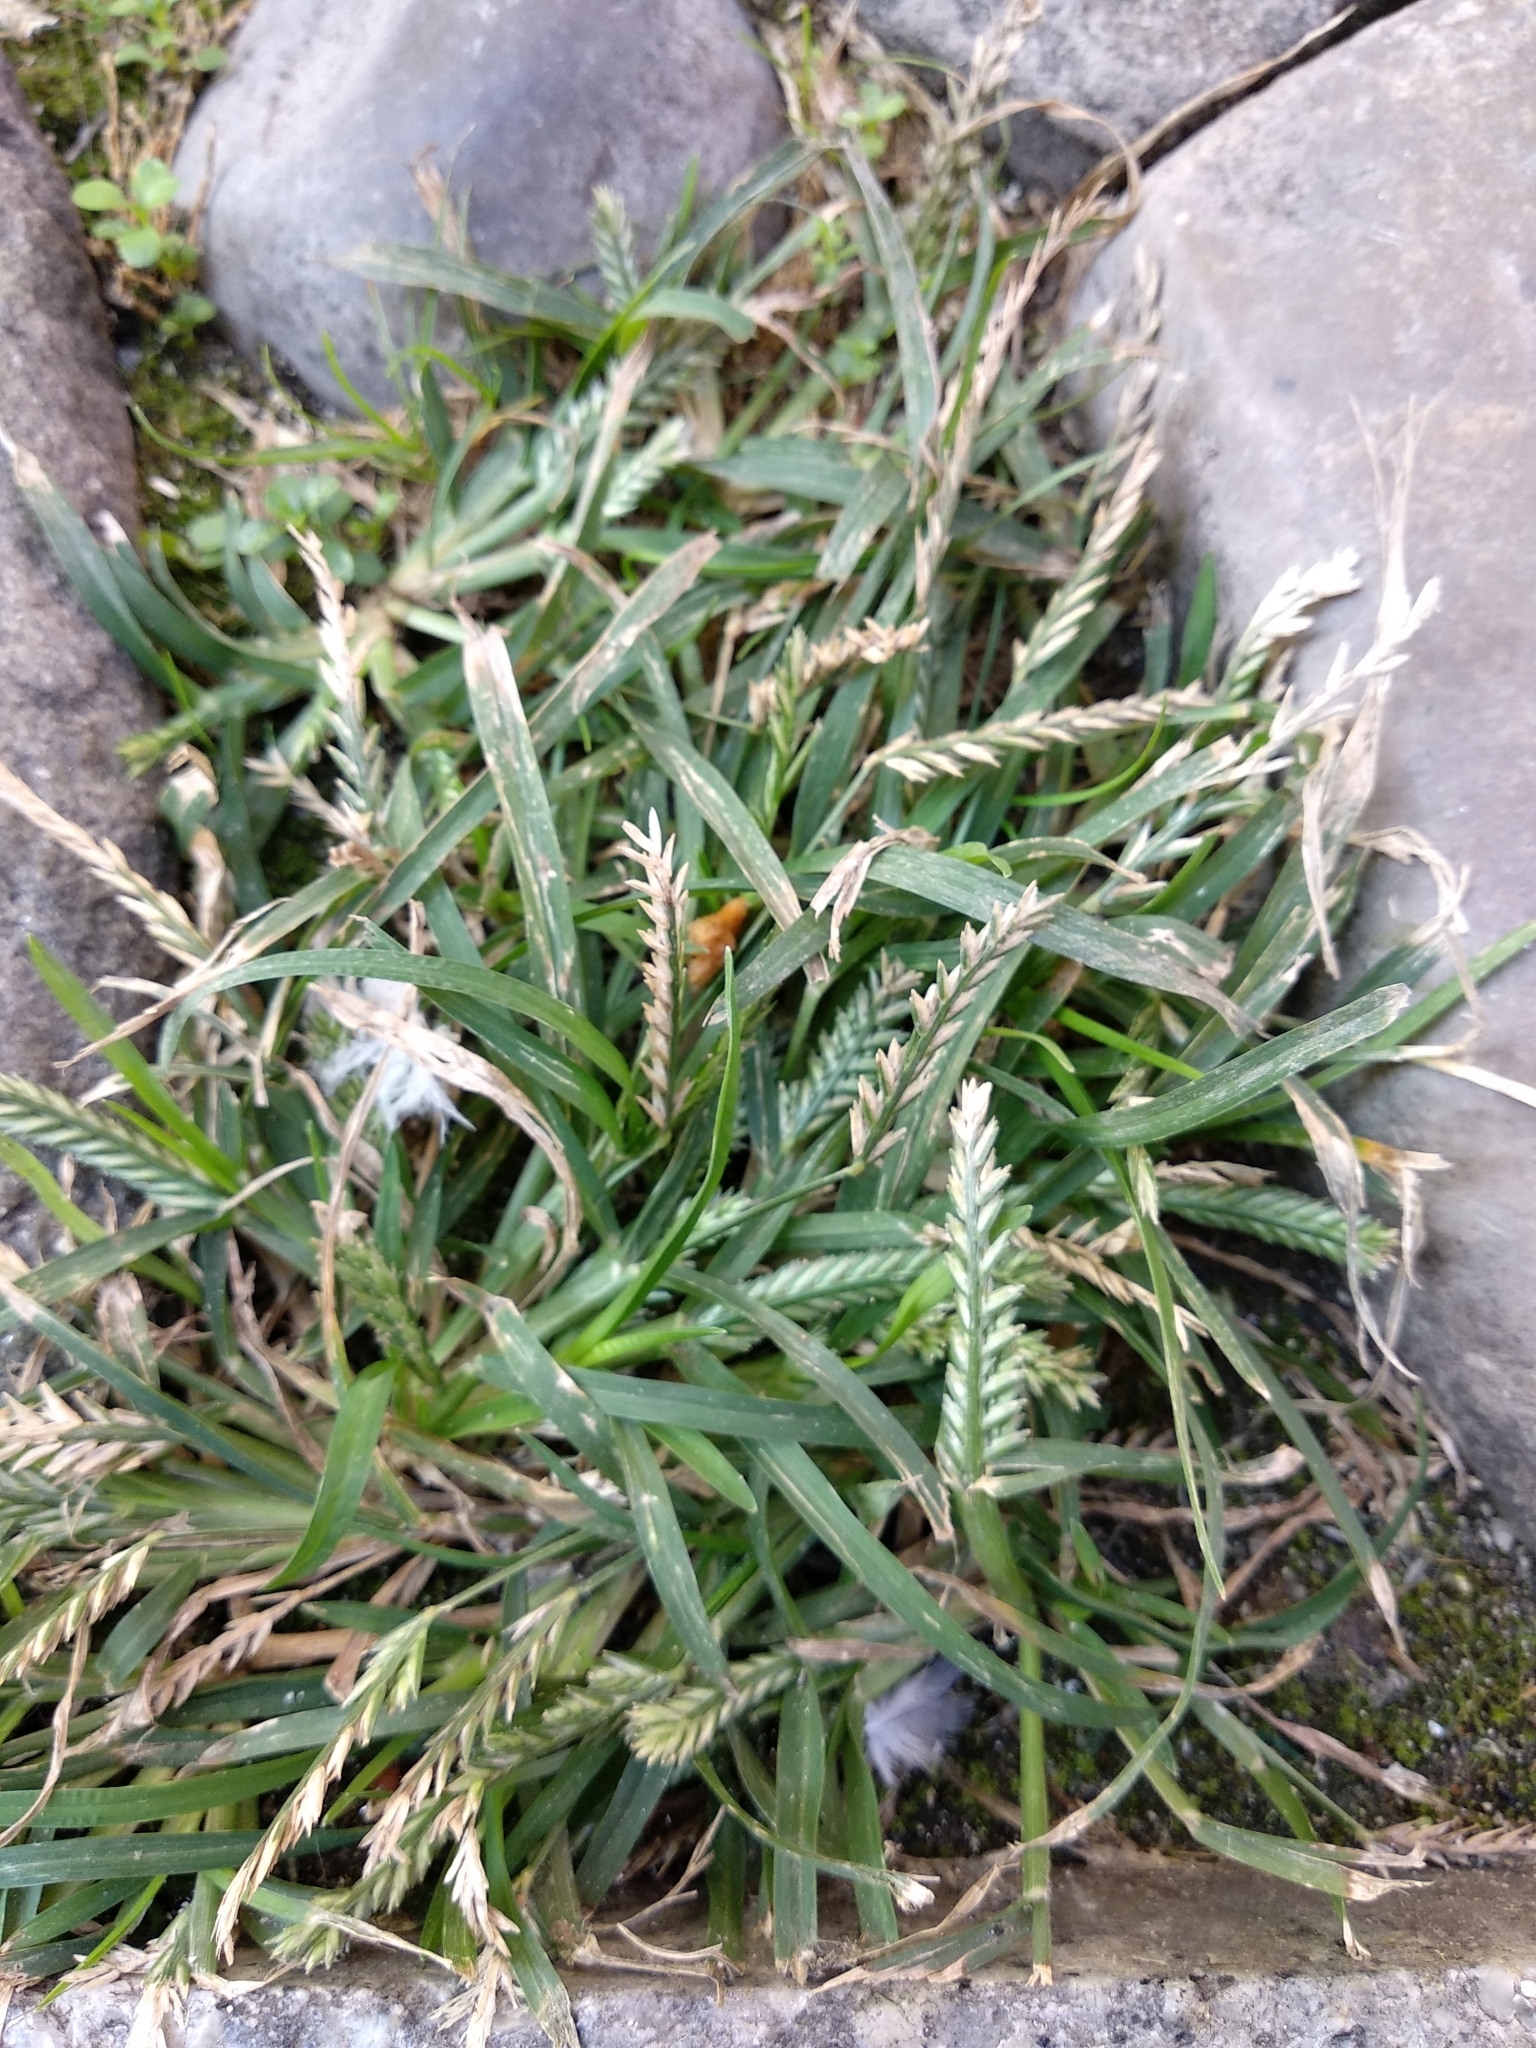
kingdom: Plantae
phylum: Tracheophyta
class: Liliopsida
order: Poales
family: Poaceae
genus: Eleusine
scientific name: Eleusine indica
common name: Yard-grass
